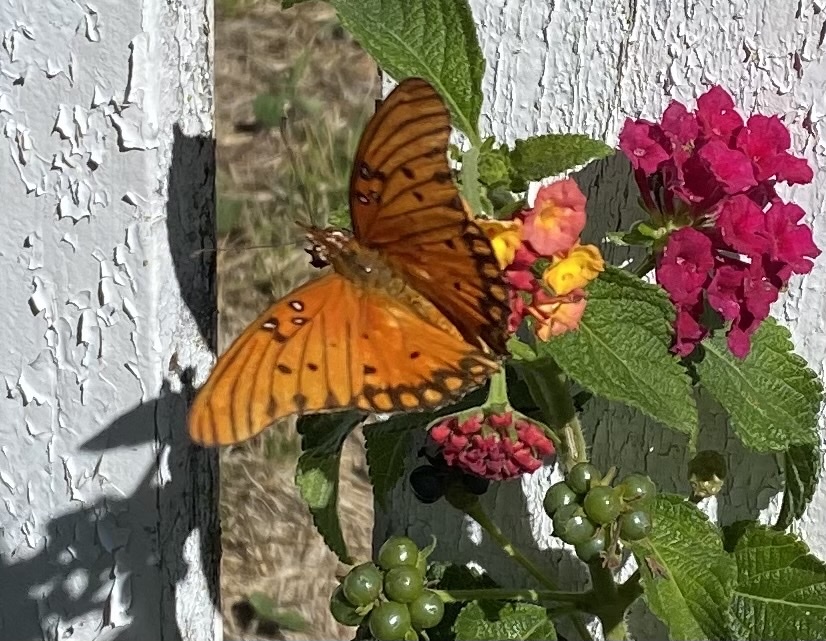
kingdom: Animalia
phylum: Arthropoda
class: Insecta
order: Lepidoptera
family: Nymphalidae
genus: Dione
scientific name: Dione vanillae
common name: Gulf fritillary
